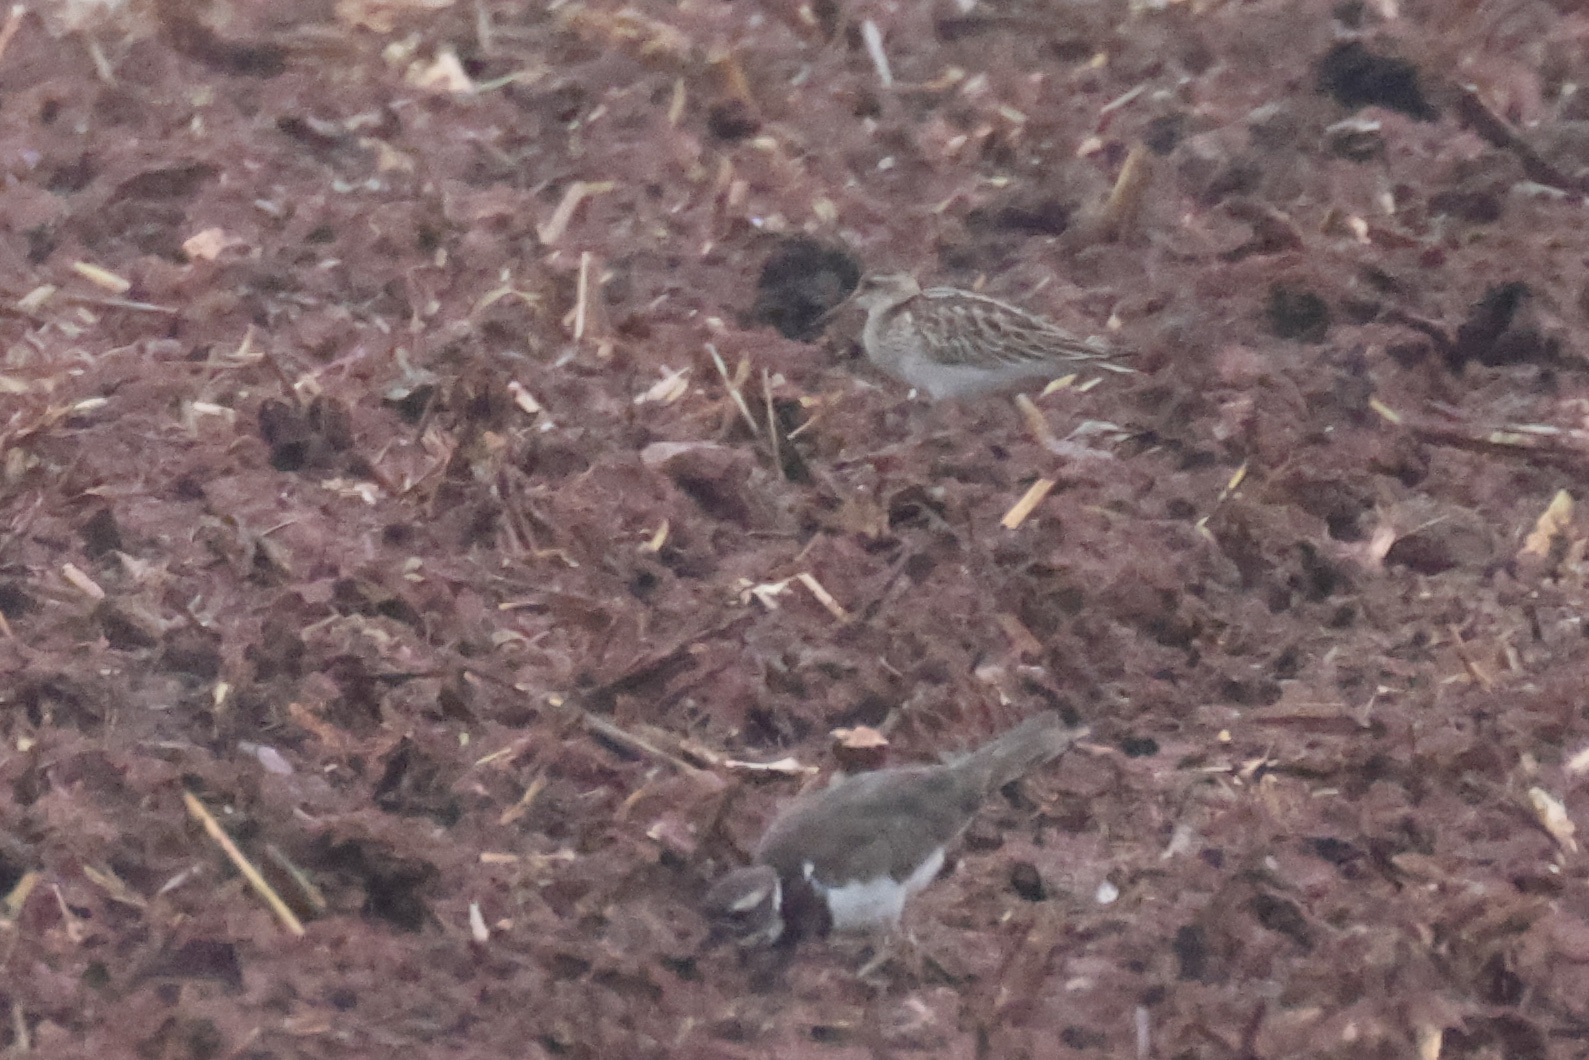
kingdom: Animalia
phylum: Chordata
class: Aves
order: Charadriiformes
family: Scolopacidae
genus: Calidris
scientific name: Calidris melanotos
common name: Pectoral sandpiper
